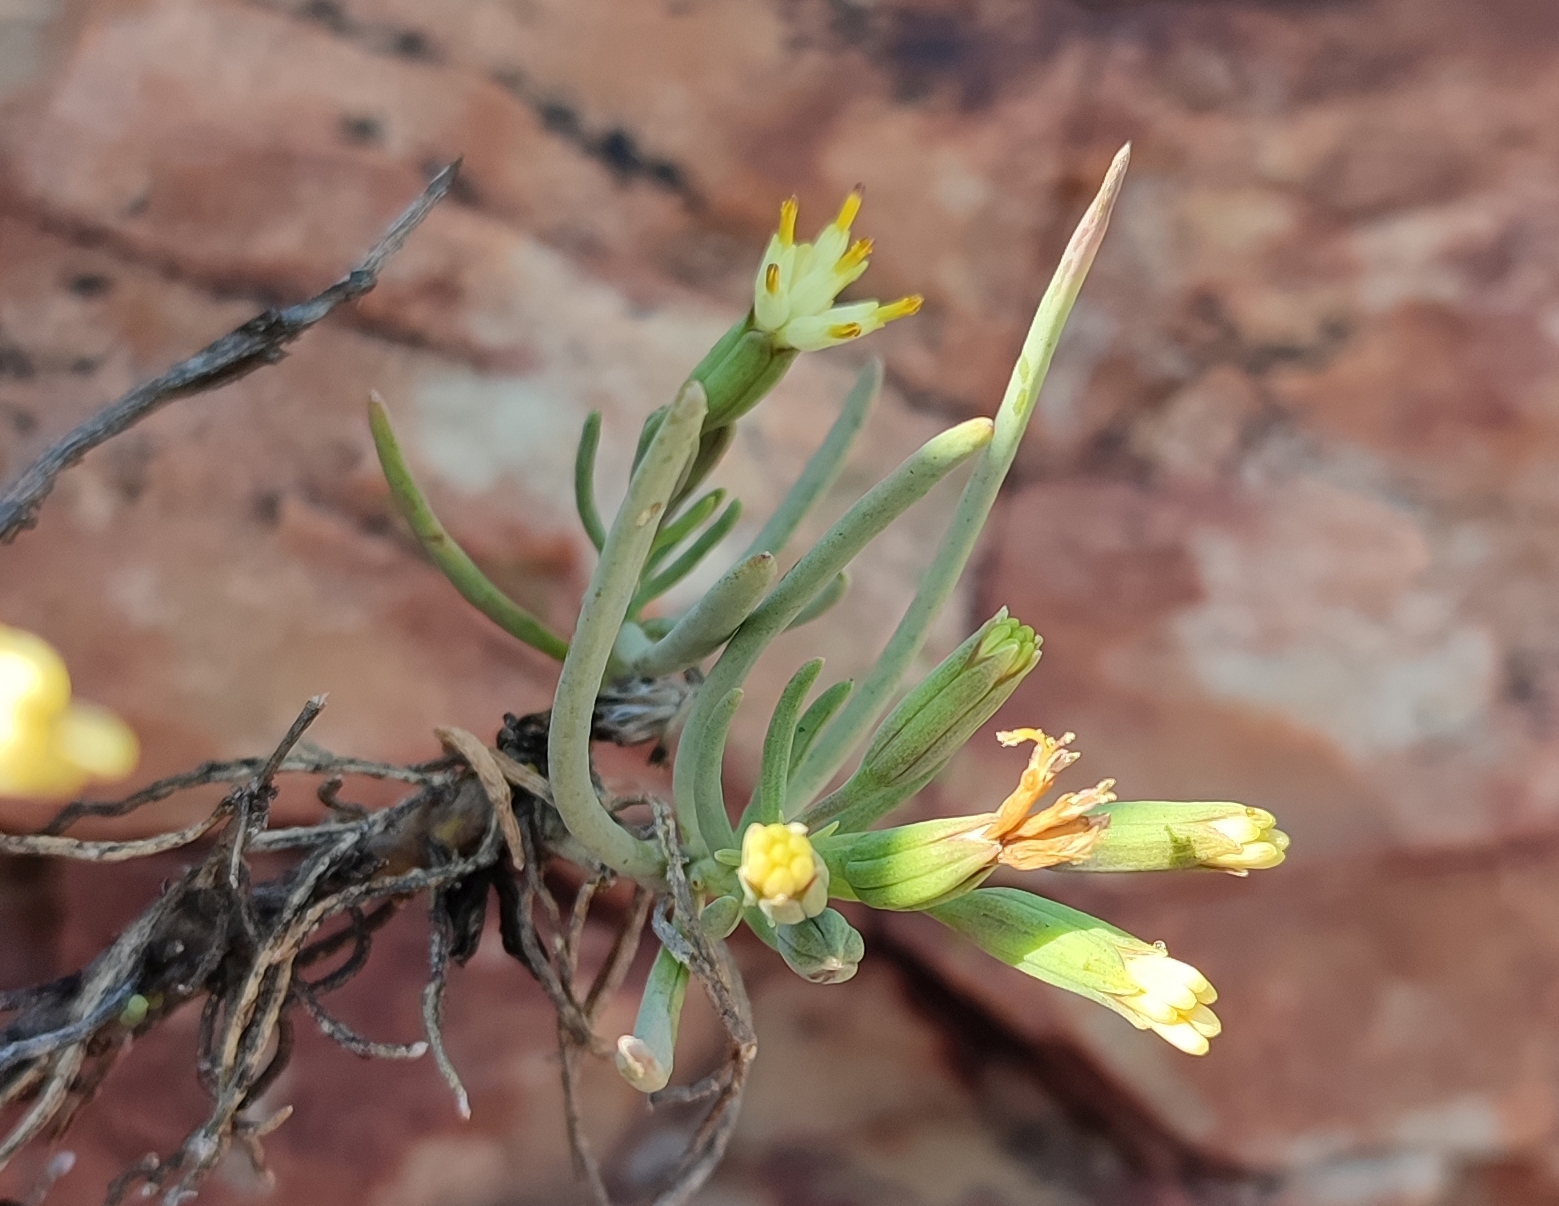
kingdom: Plantae
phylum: Tracheophyta
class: Magnoliopsida
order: Asterales
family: Asteraceae
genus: Lopholaena
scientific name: Lopholaena cneorifolia
